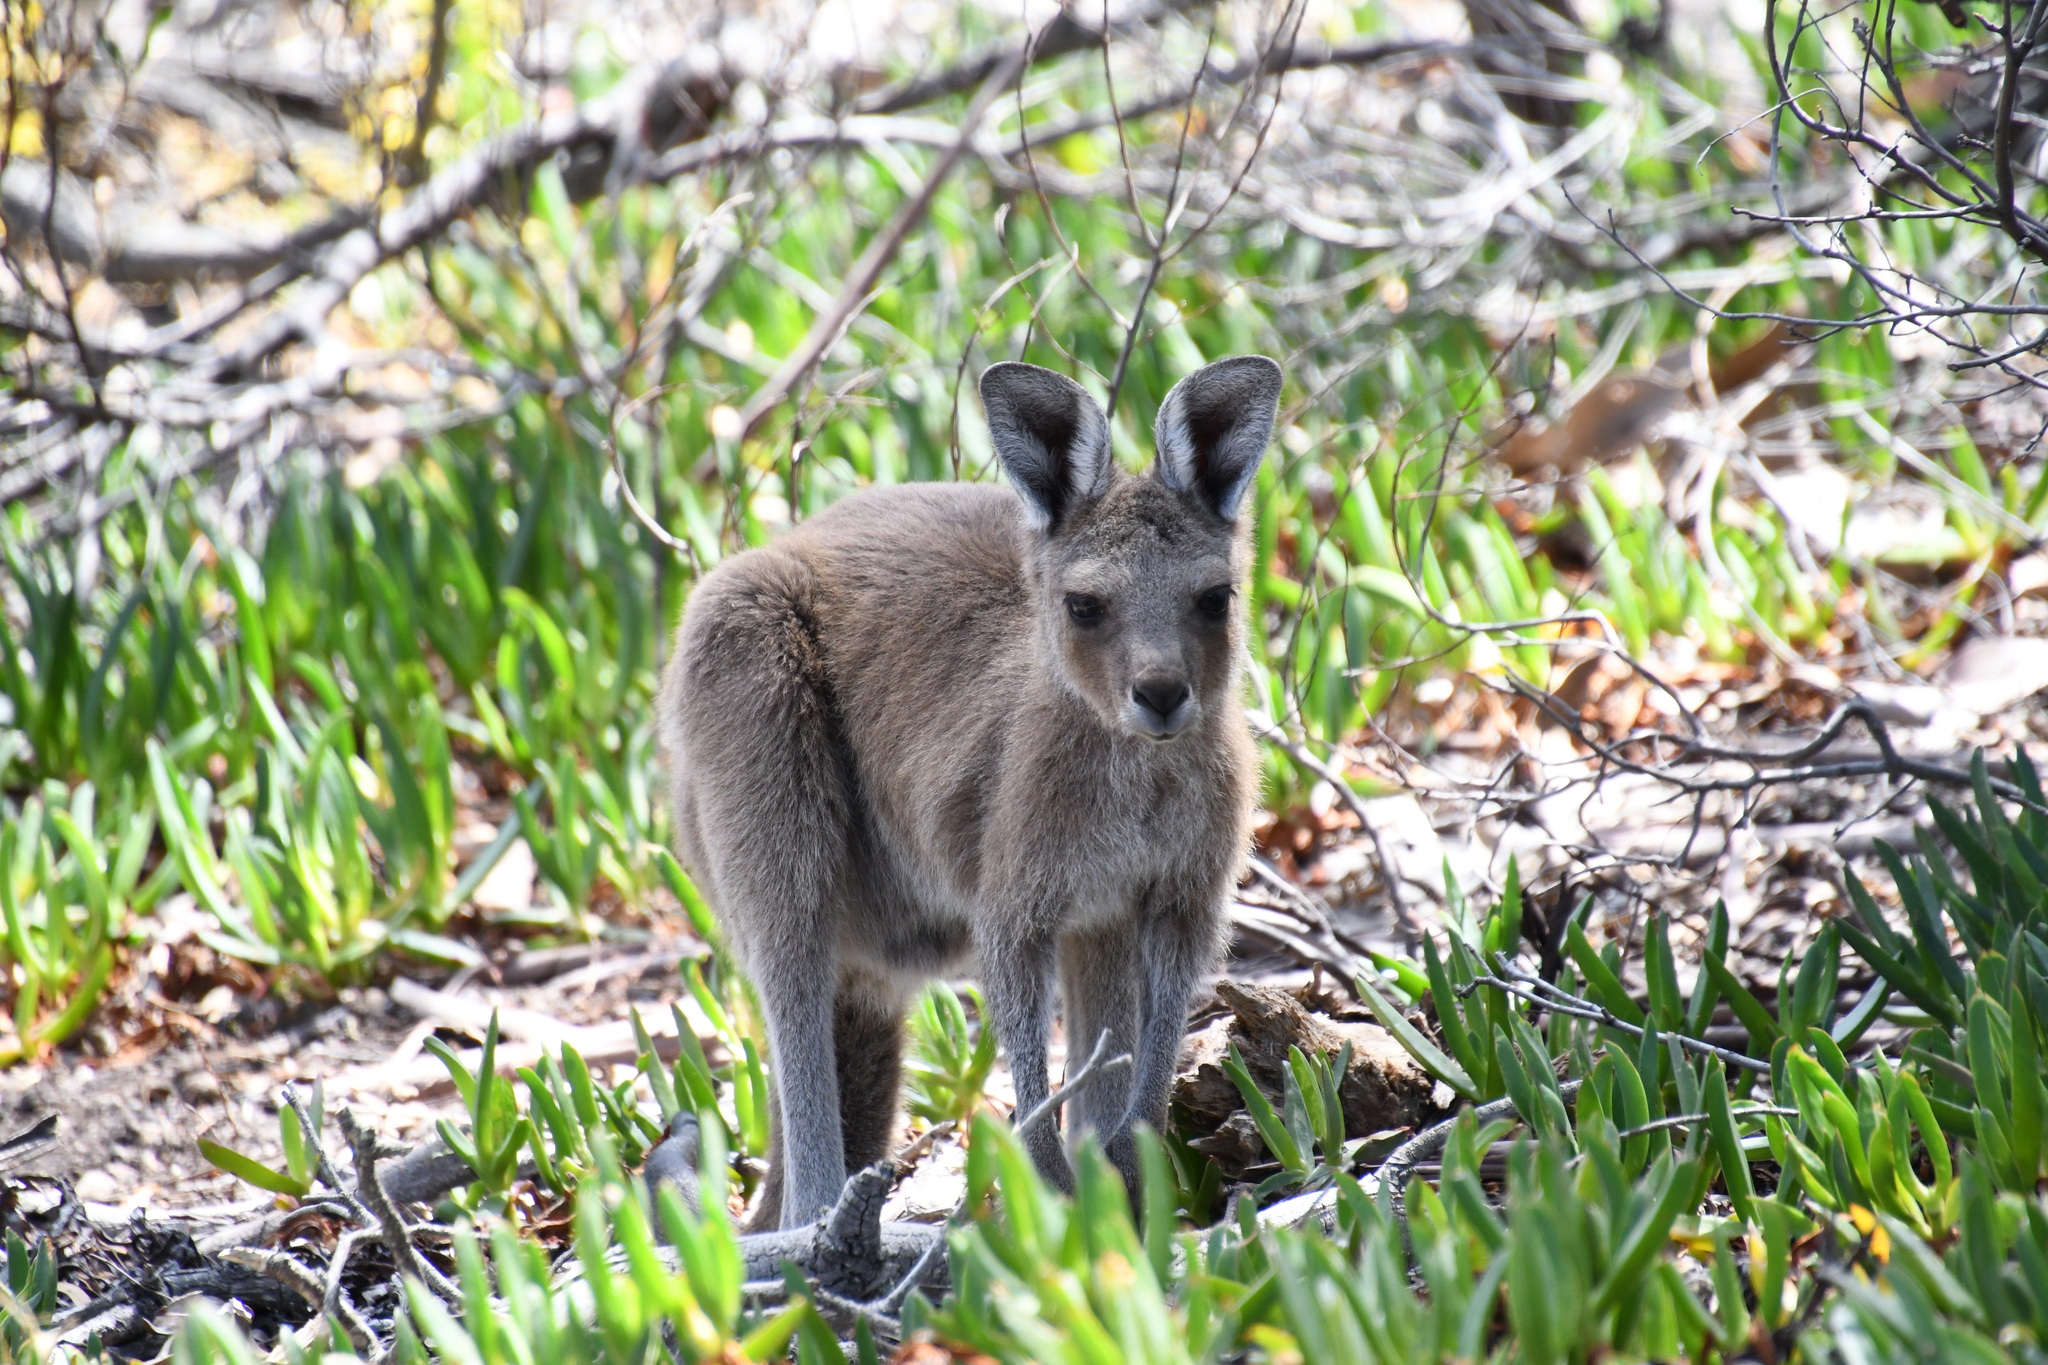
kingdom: Animalia
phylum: Chordata
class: Mammalia
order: Diprotodontia
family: Macropodidae
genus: Macropus
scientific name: Macropus fuliginosus
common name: Western grey kangaroo
